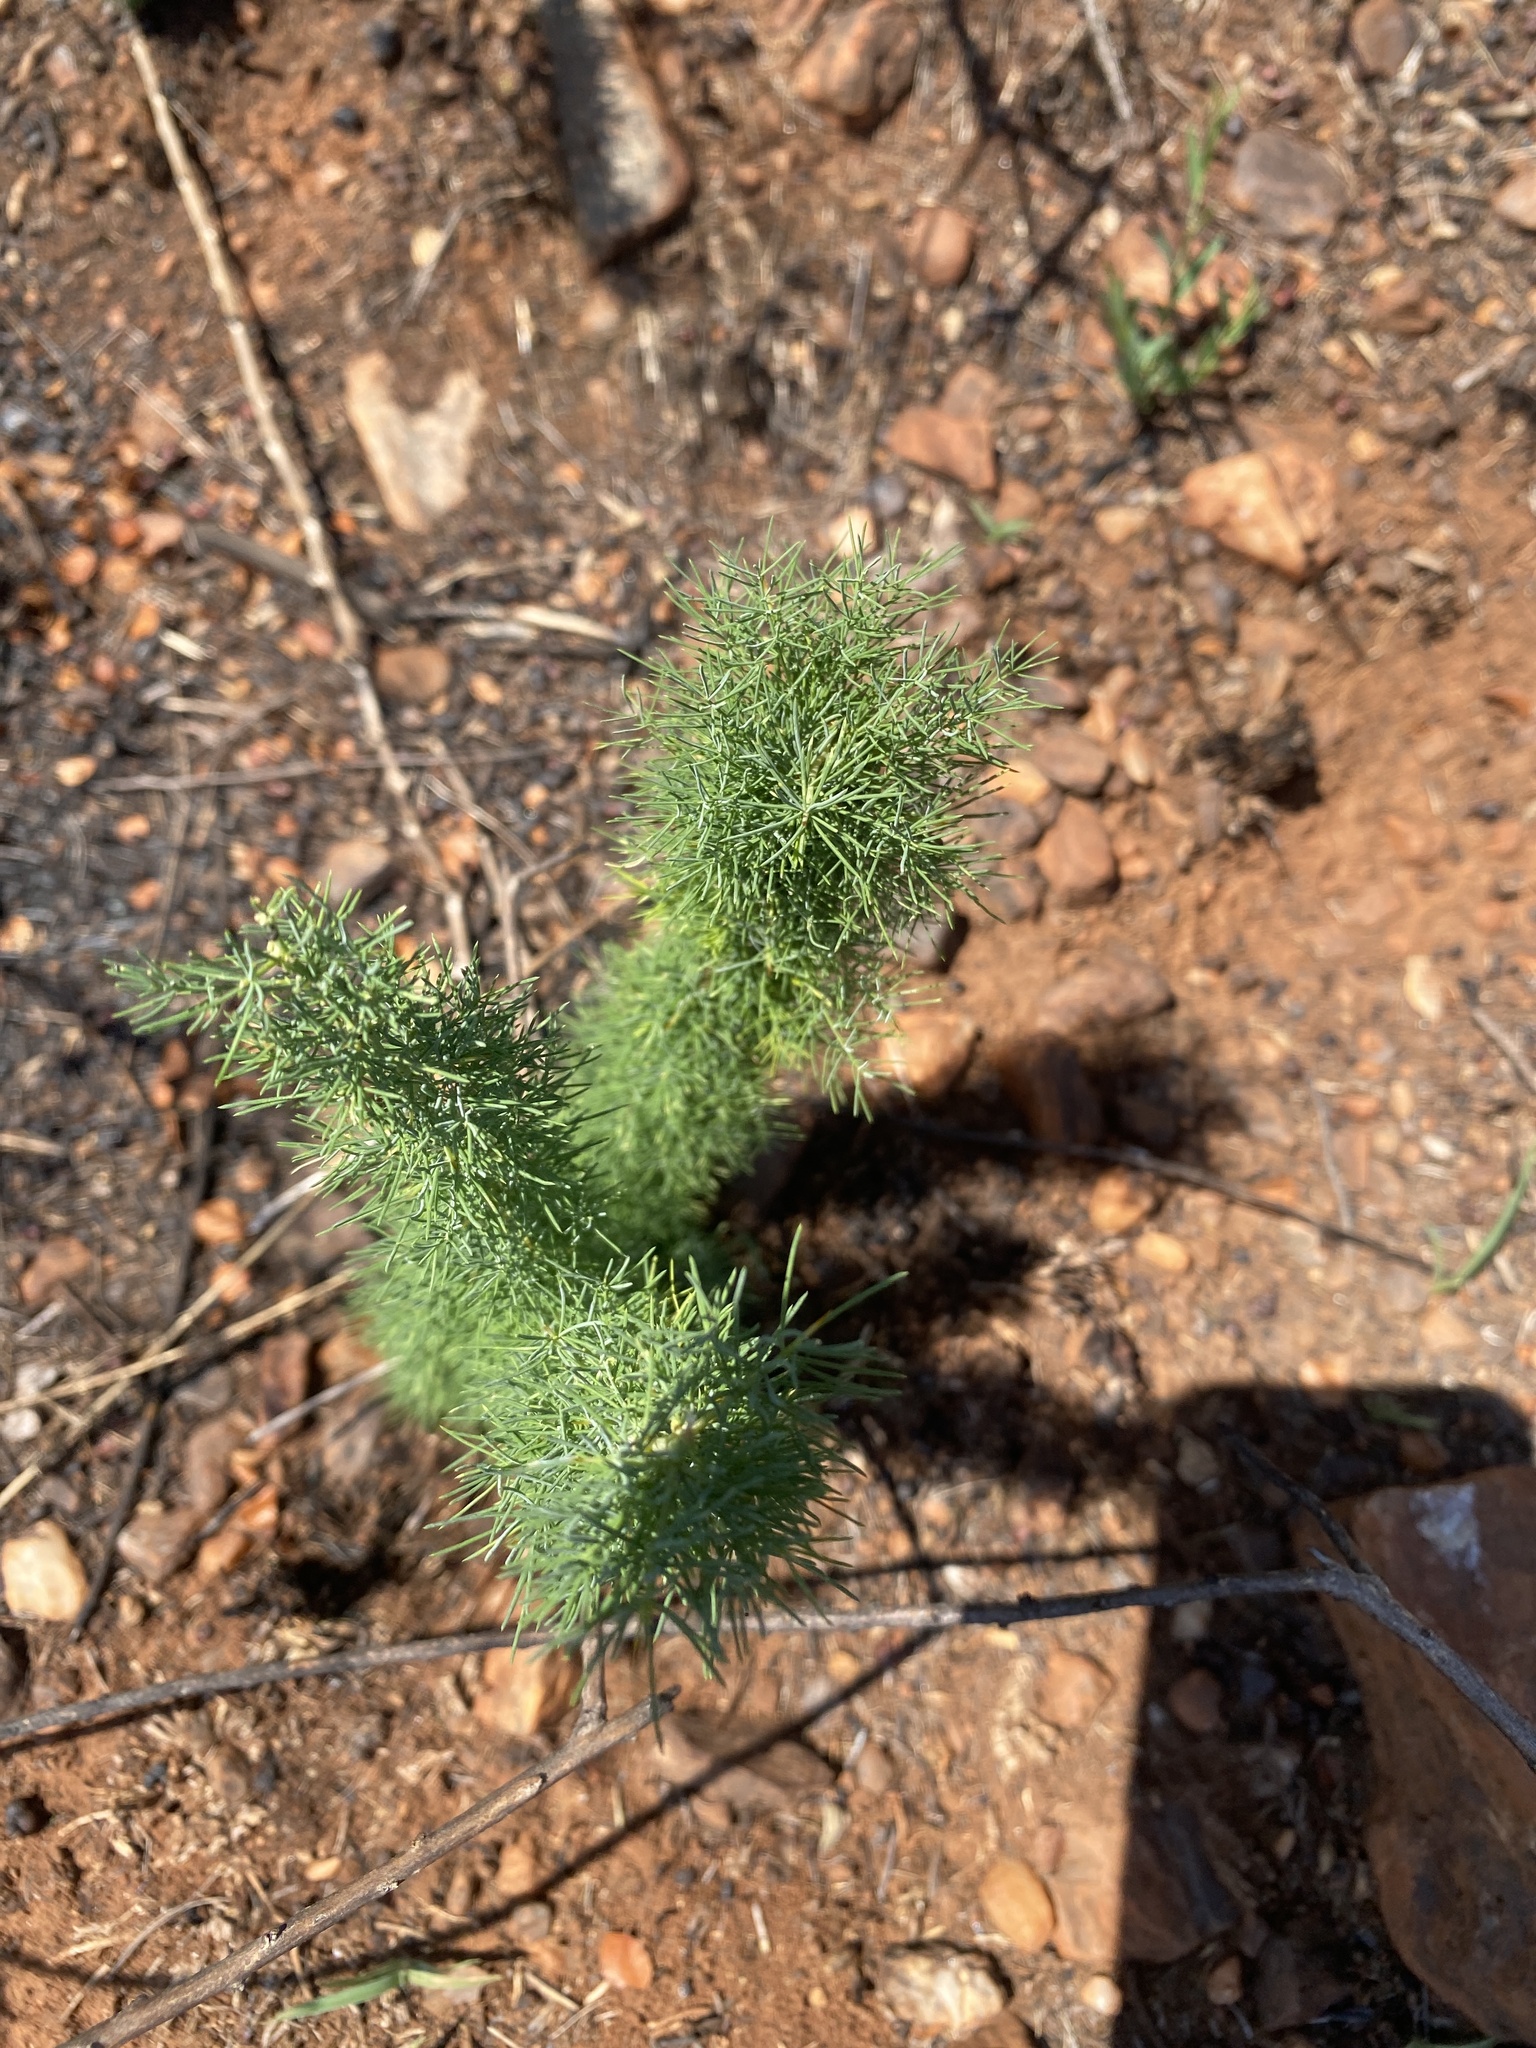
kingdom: Plantae
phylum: Tracheophyta
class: Liliopsida
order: Asparagales
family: Asparagaceae
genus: Asparagus
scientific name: Asparagus suaveolens
